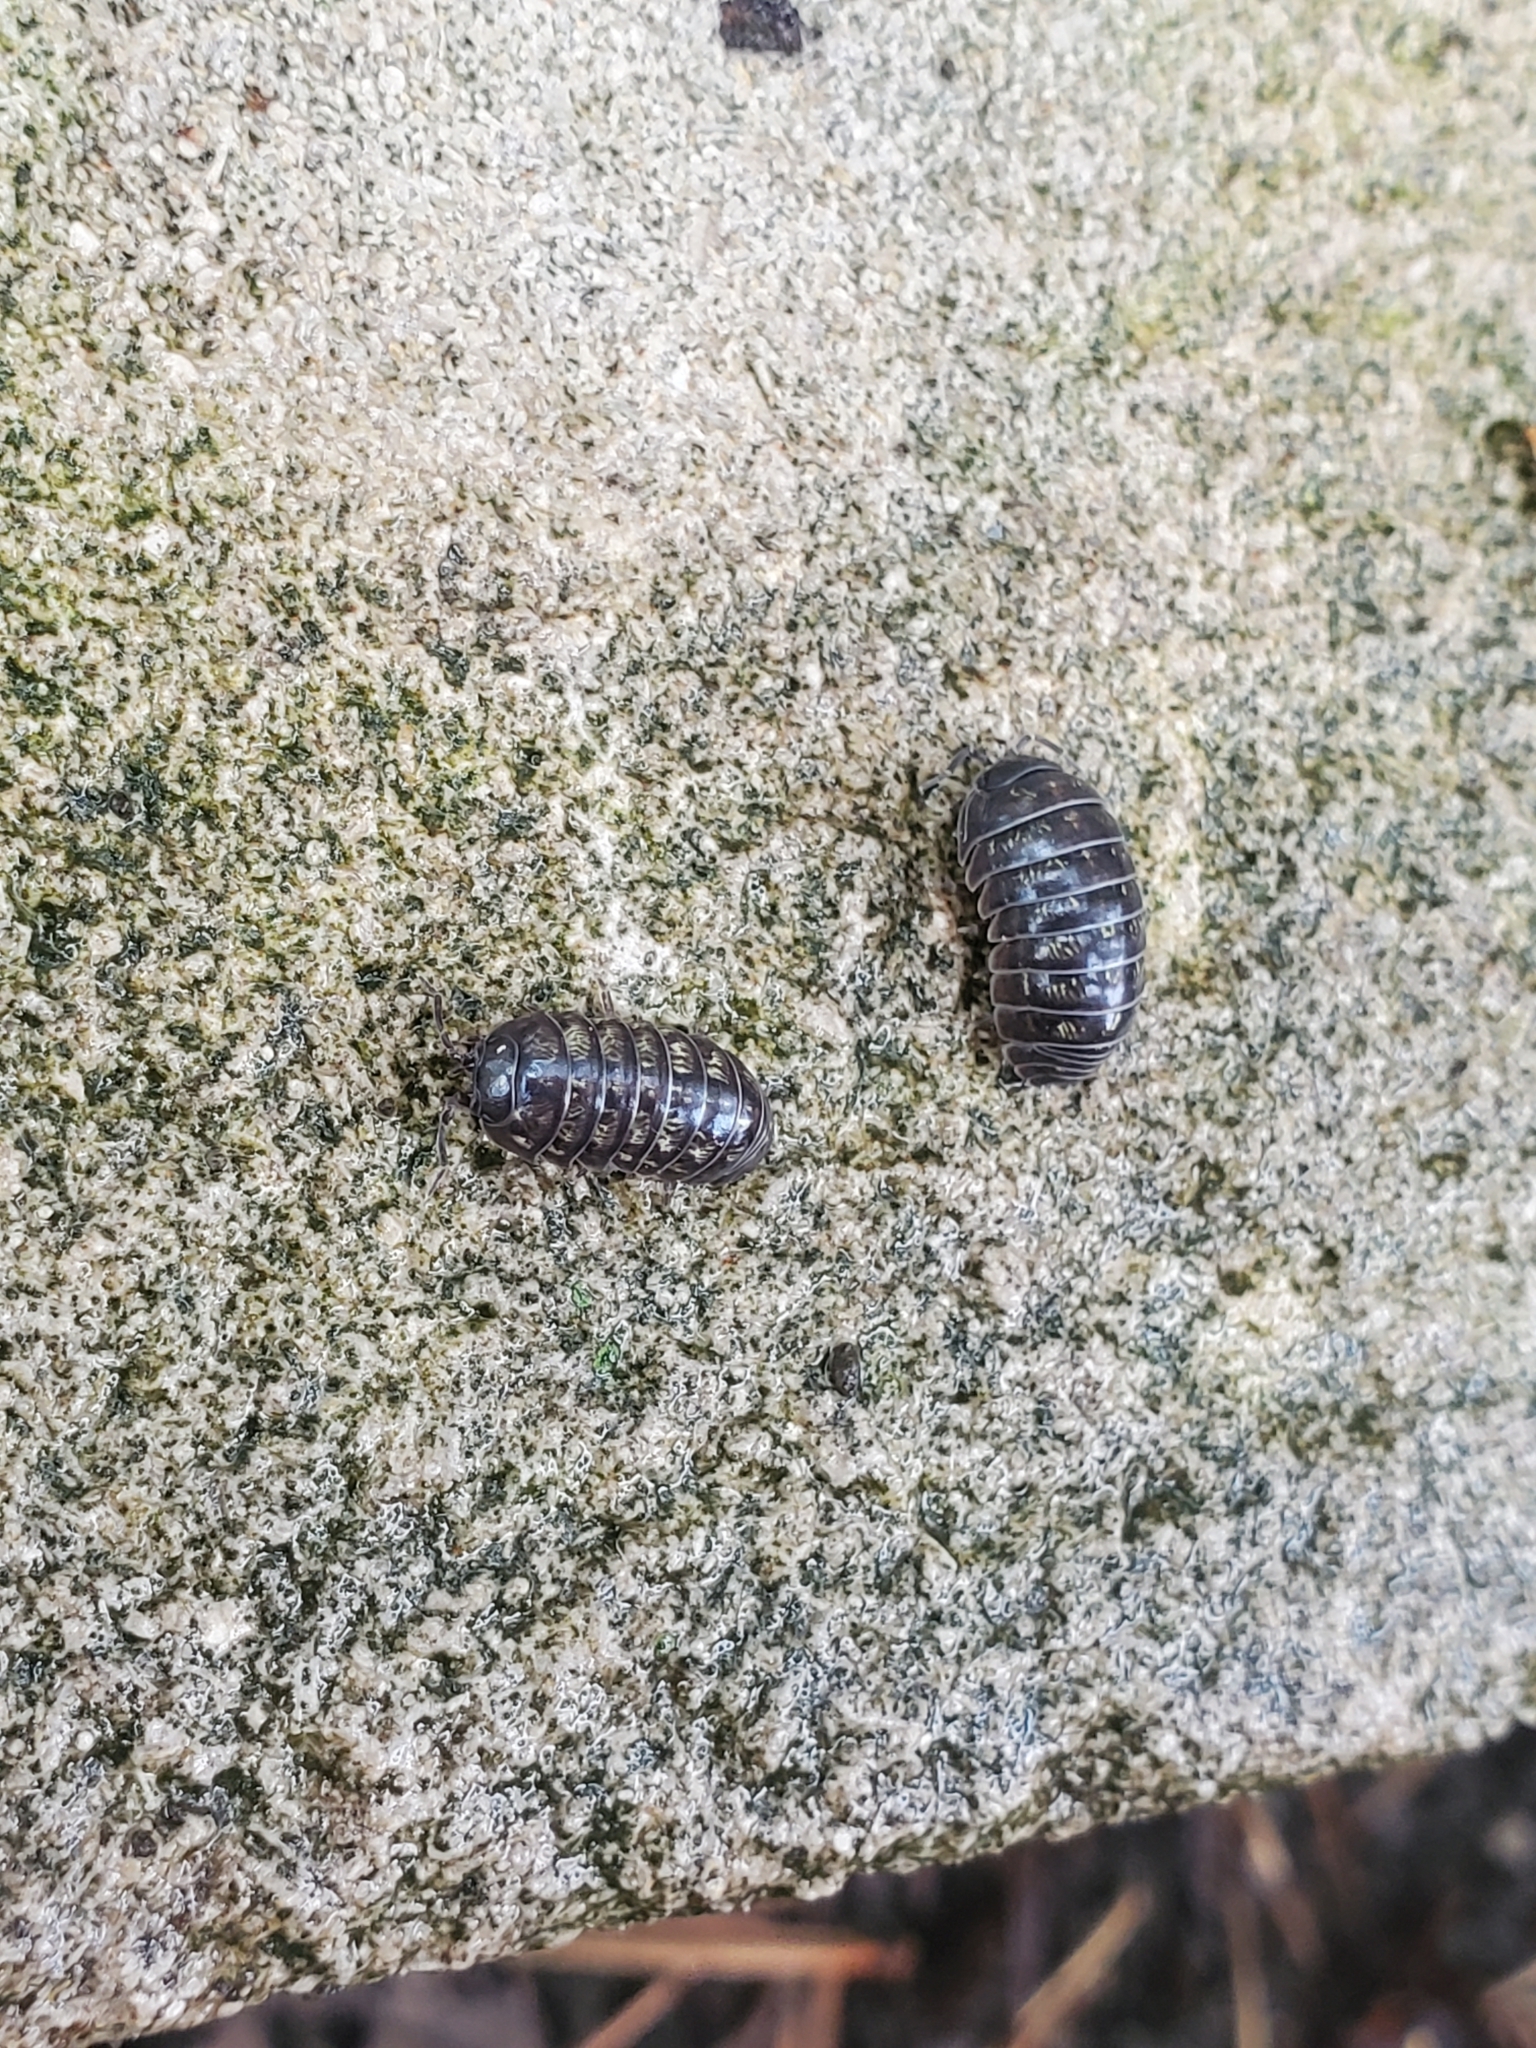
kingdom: Animalia
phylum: Arthropoda
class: Malacostraca
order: Isopoda
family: Armadillidiidae
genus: Armadillidium
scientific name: Armadillidium vulgare
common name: Common pill woodlouse
